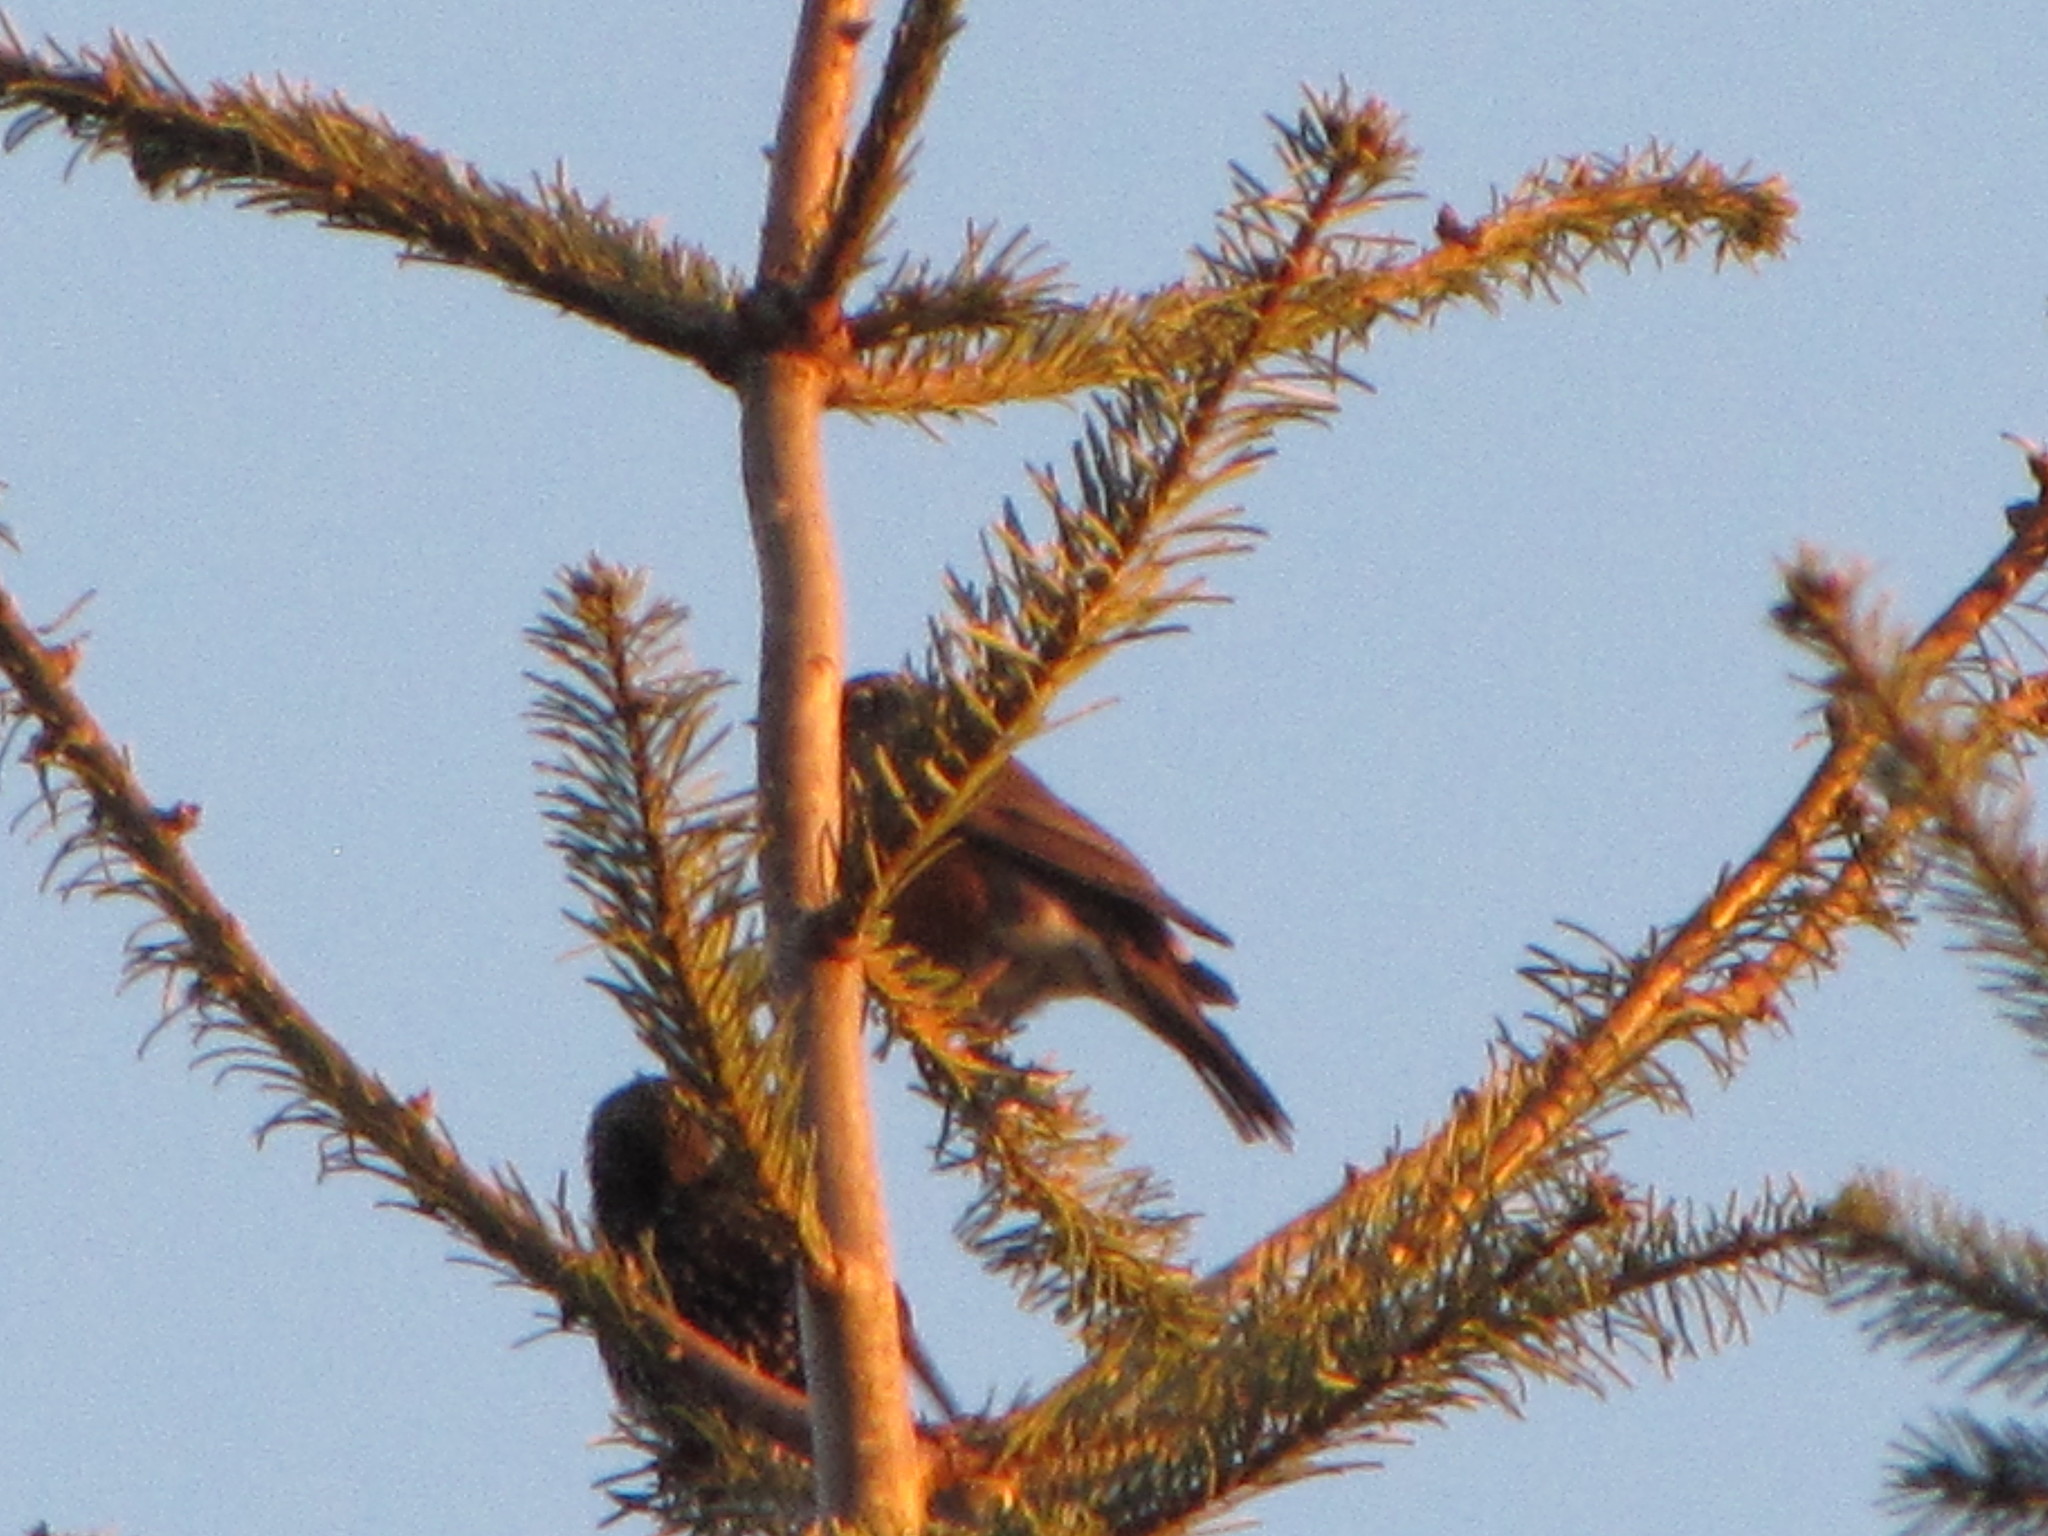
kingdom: Animalia
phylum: Chordata
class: Aves
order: Passeriformes
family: Turdidae
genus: Turdus
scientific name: Turdus migratorius
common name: American robin
